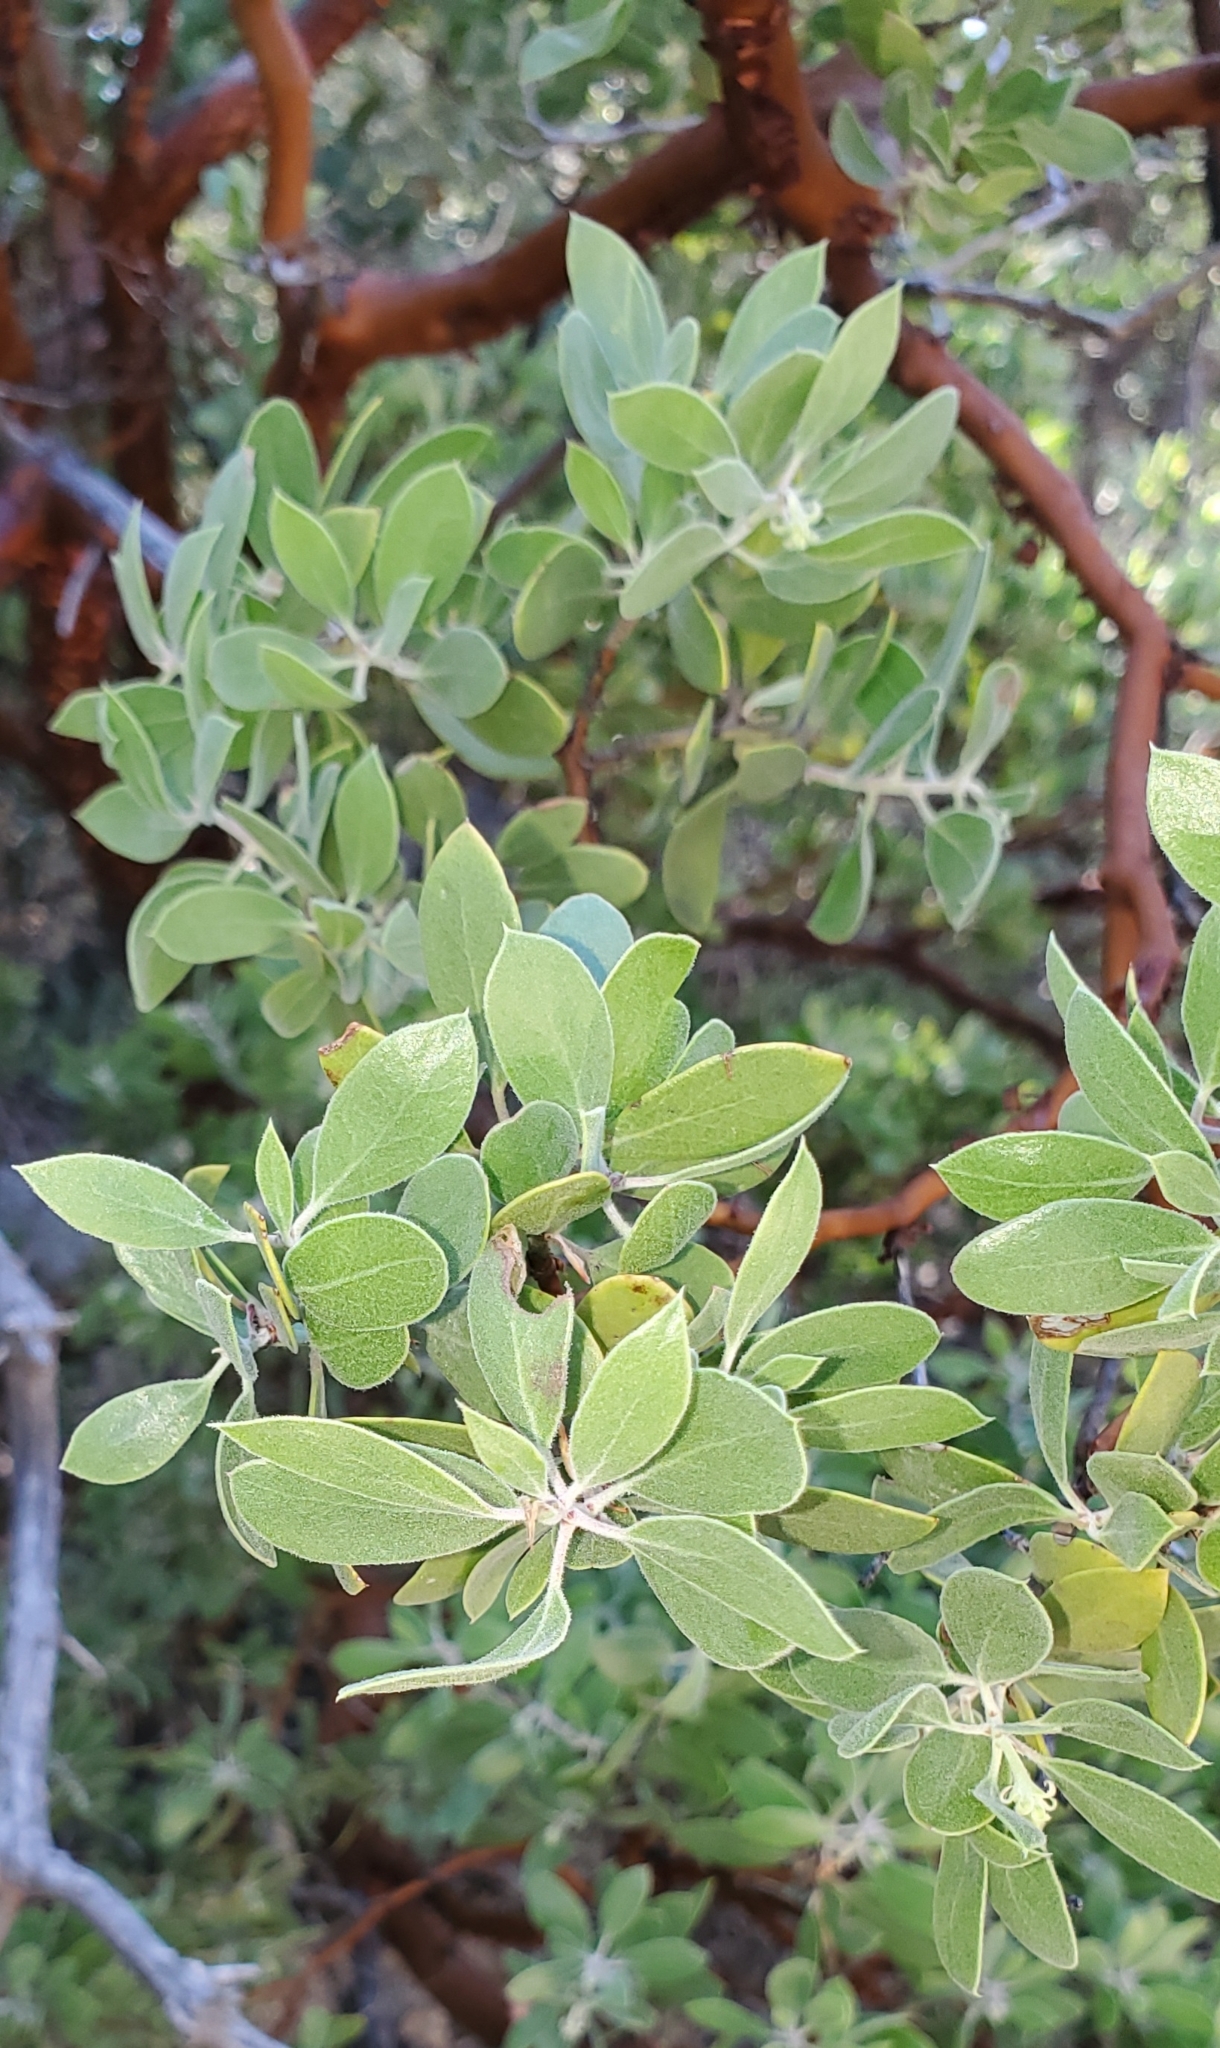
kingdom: Plantae
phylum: Tracheophyta
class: Magnoliopsida
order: Ericales
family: Ericaceae
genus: Arctostaphylos
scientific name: Arctostaphylos pungens
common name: Mexican manzanita
